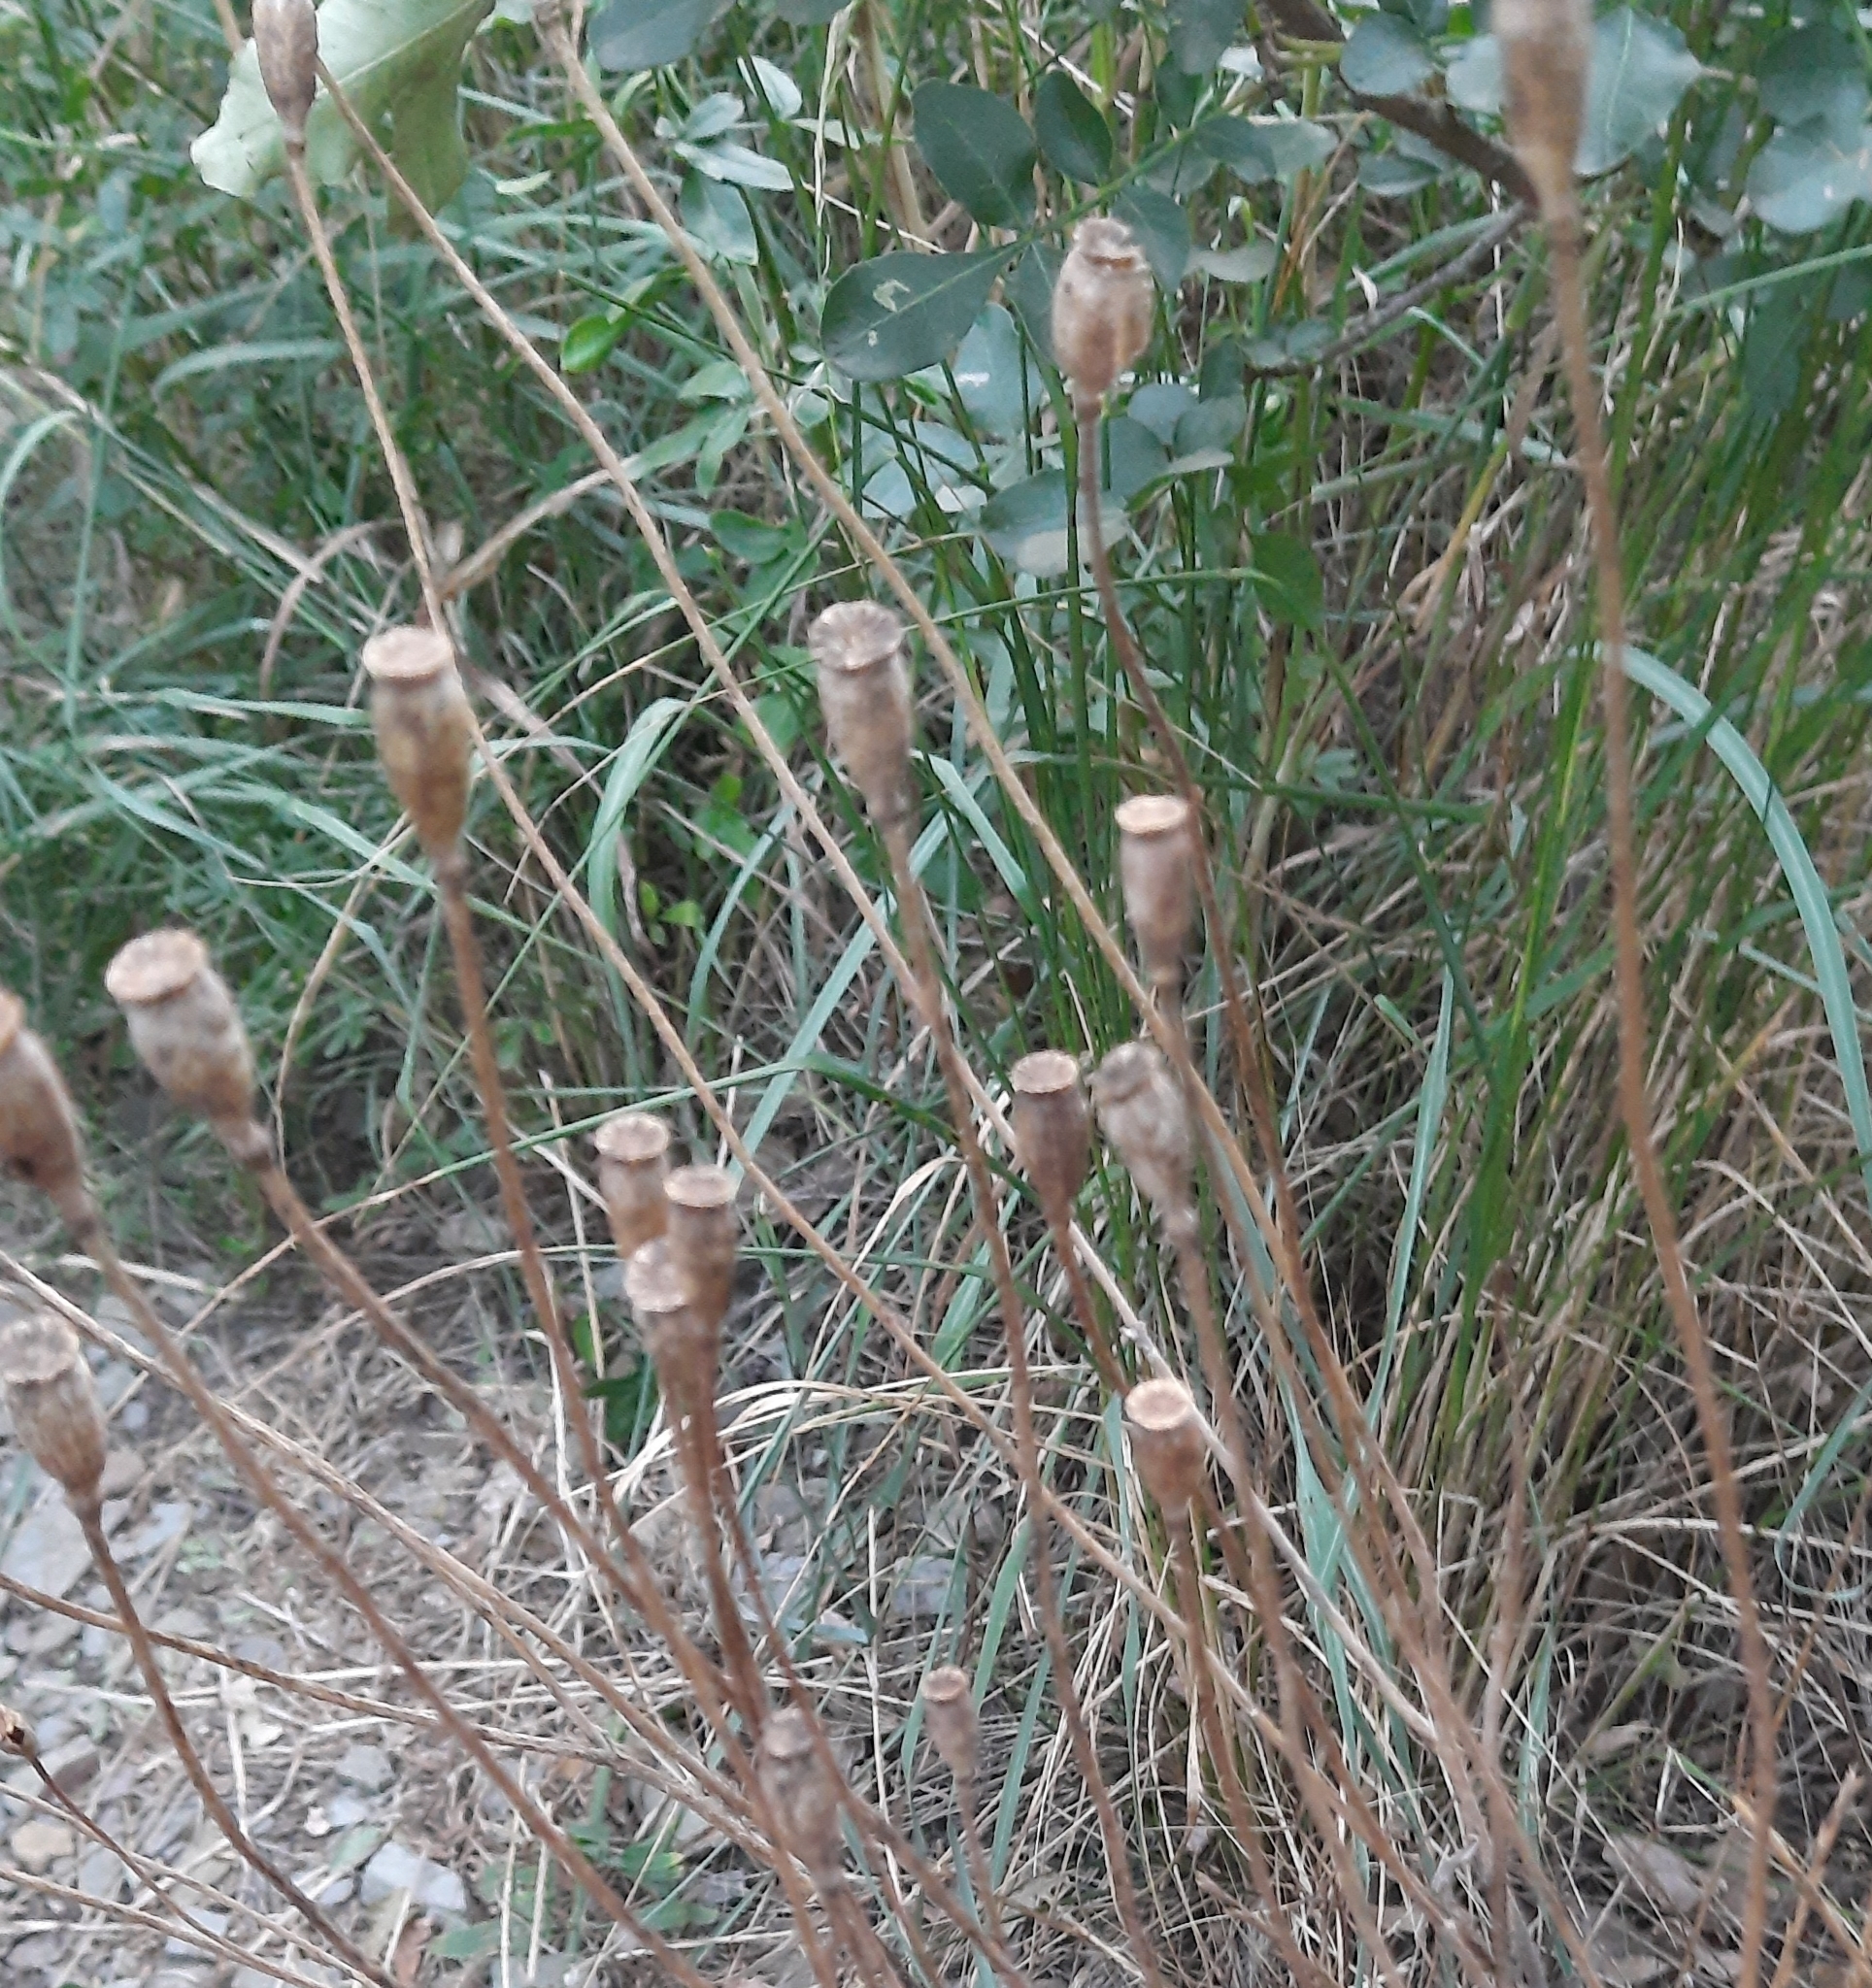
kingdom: Plantae
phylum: Tracheophyta
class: Magnoliopsida
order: Ranunculales
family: Papaveraceae
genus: Papaver
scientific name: Papaver dubium
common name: Long-headed poppy
